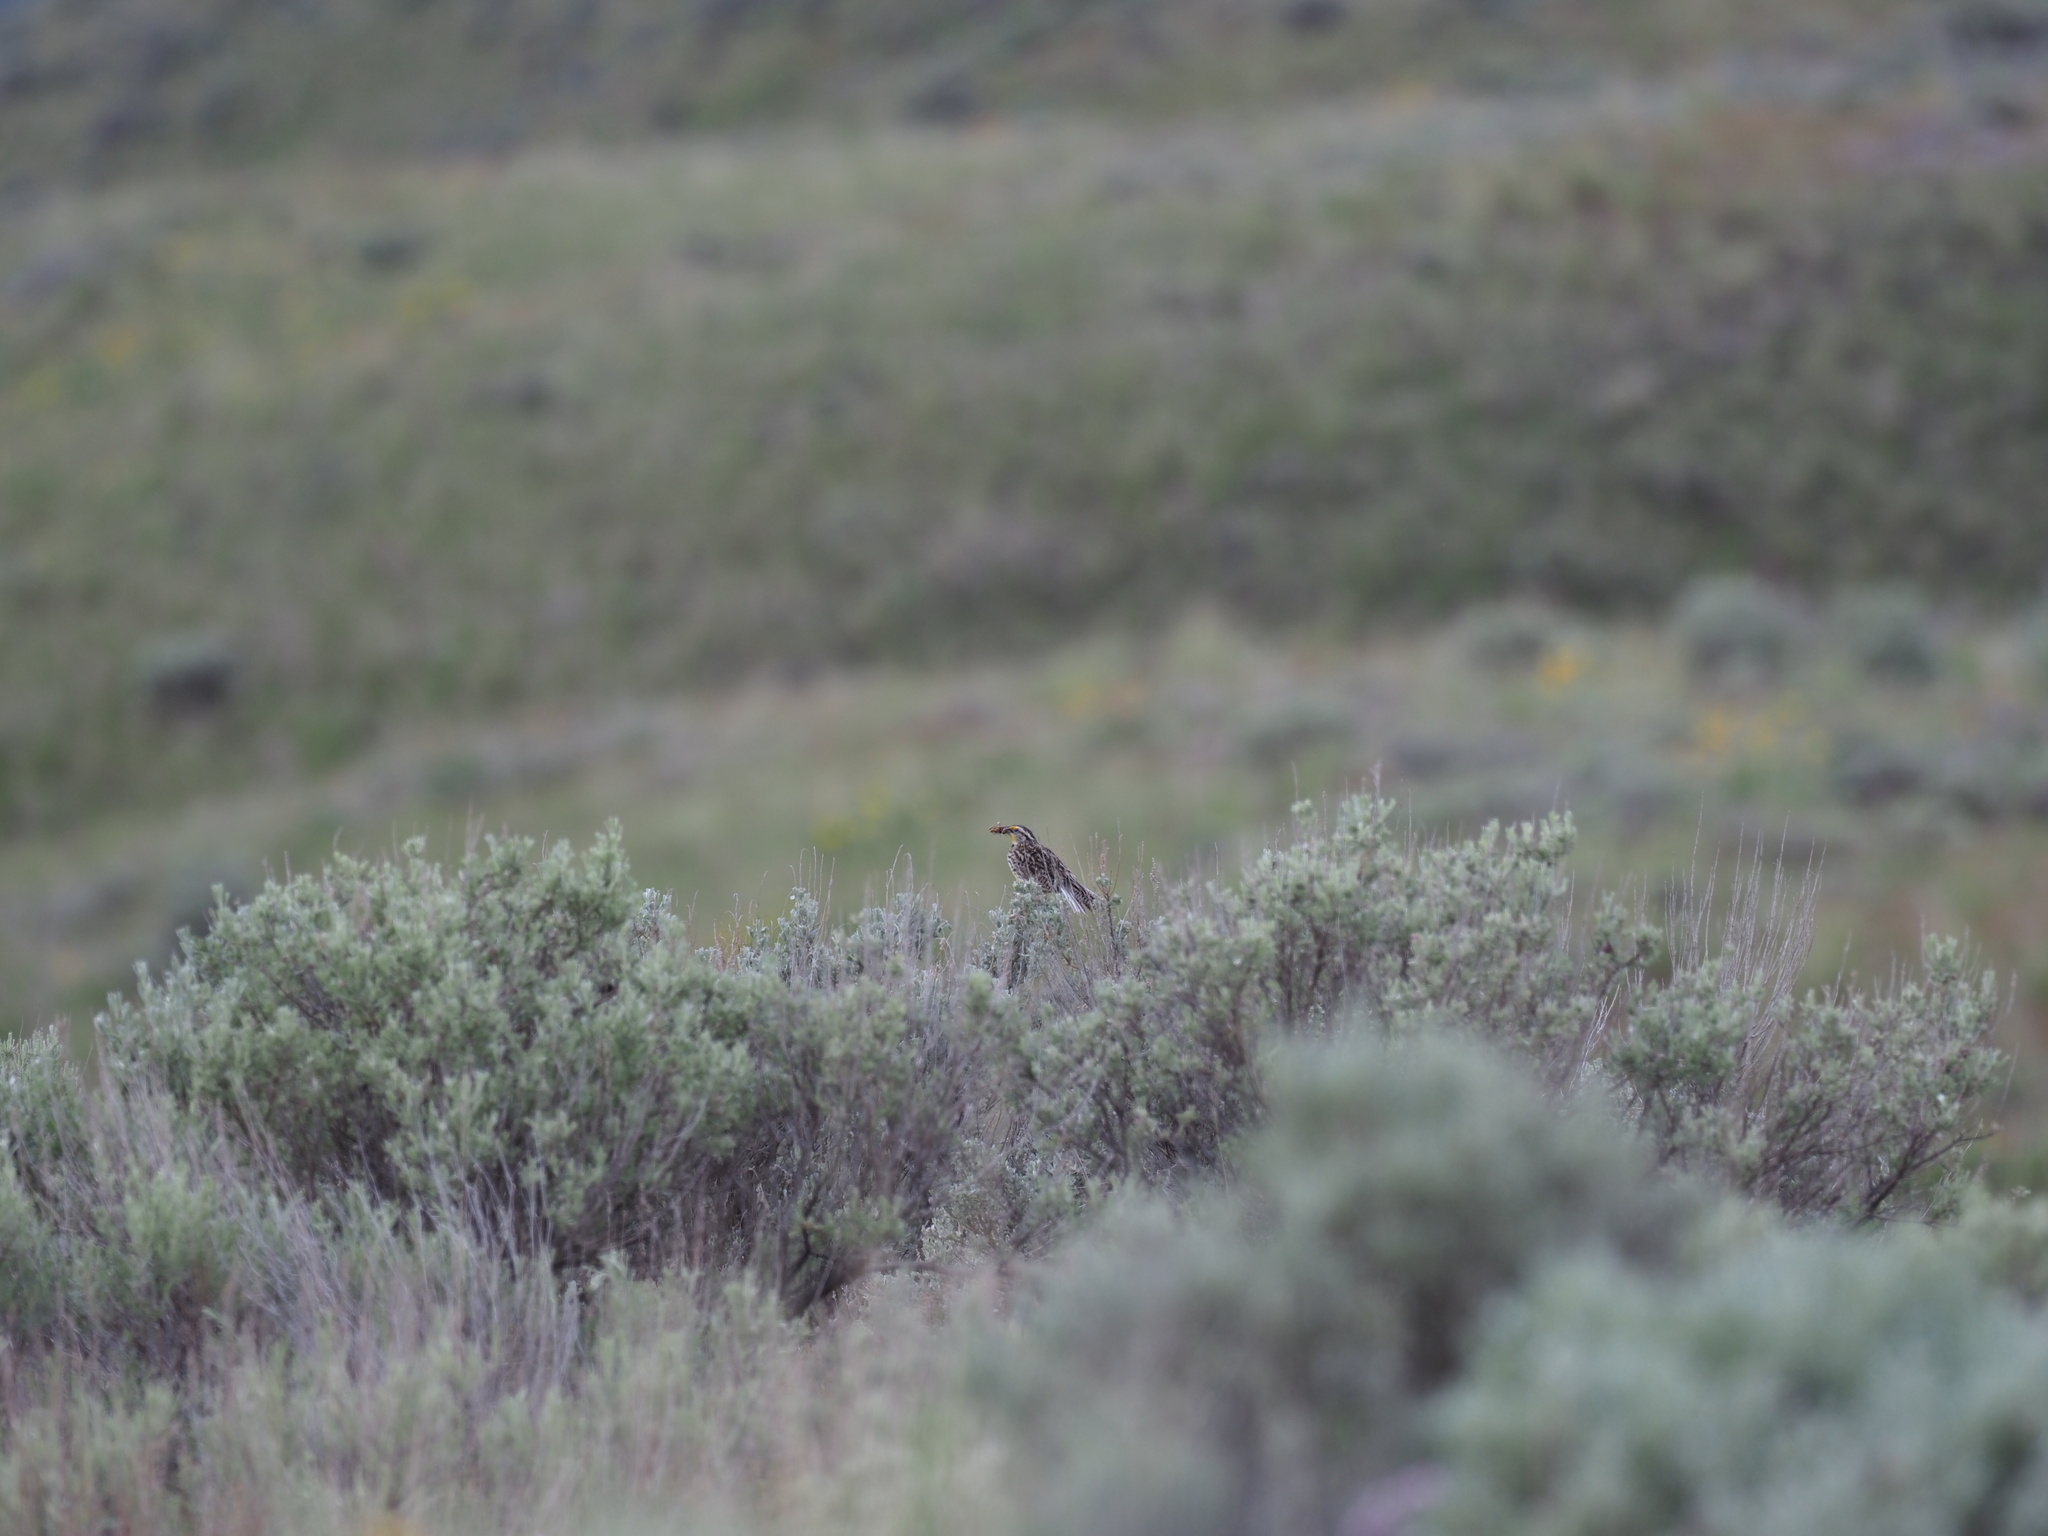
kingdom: Animalia
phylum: Chordata
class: Aves
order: Passeriformes
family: Icteridae
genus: Sturnella
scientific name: Sturnella neglecta
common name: Western meadowlark
